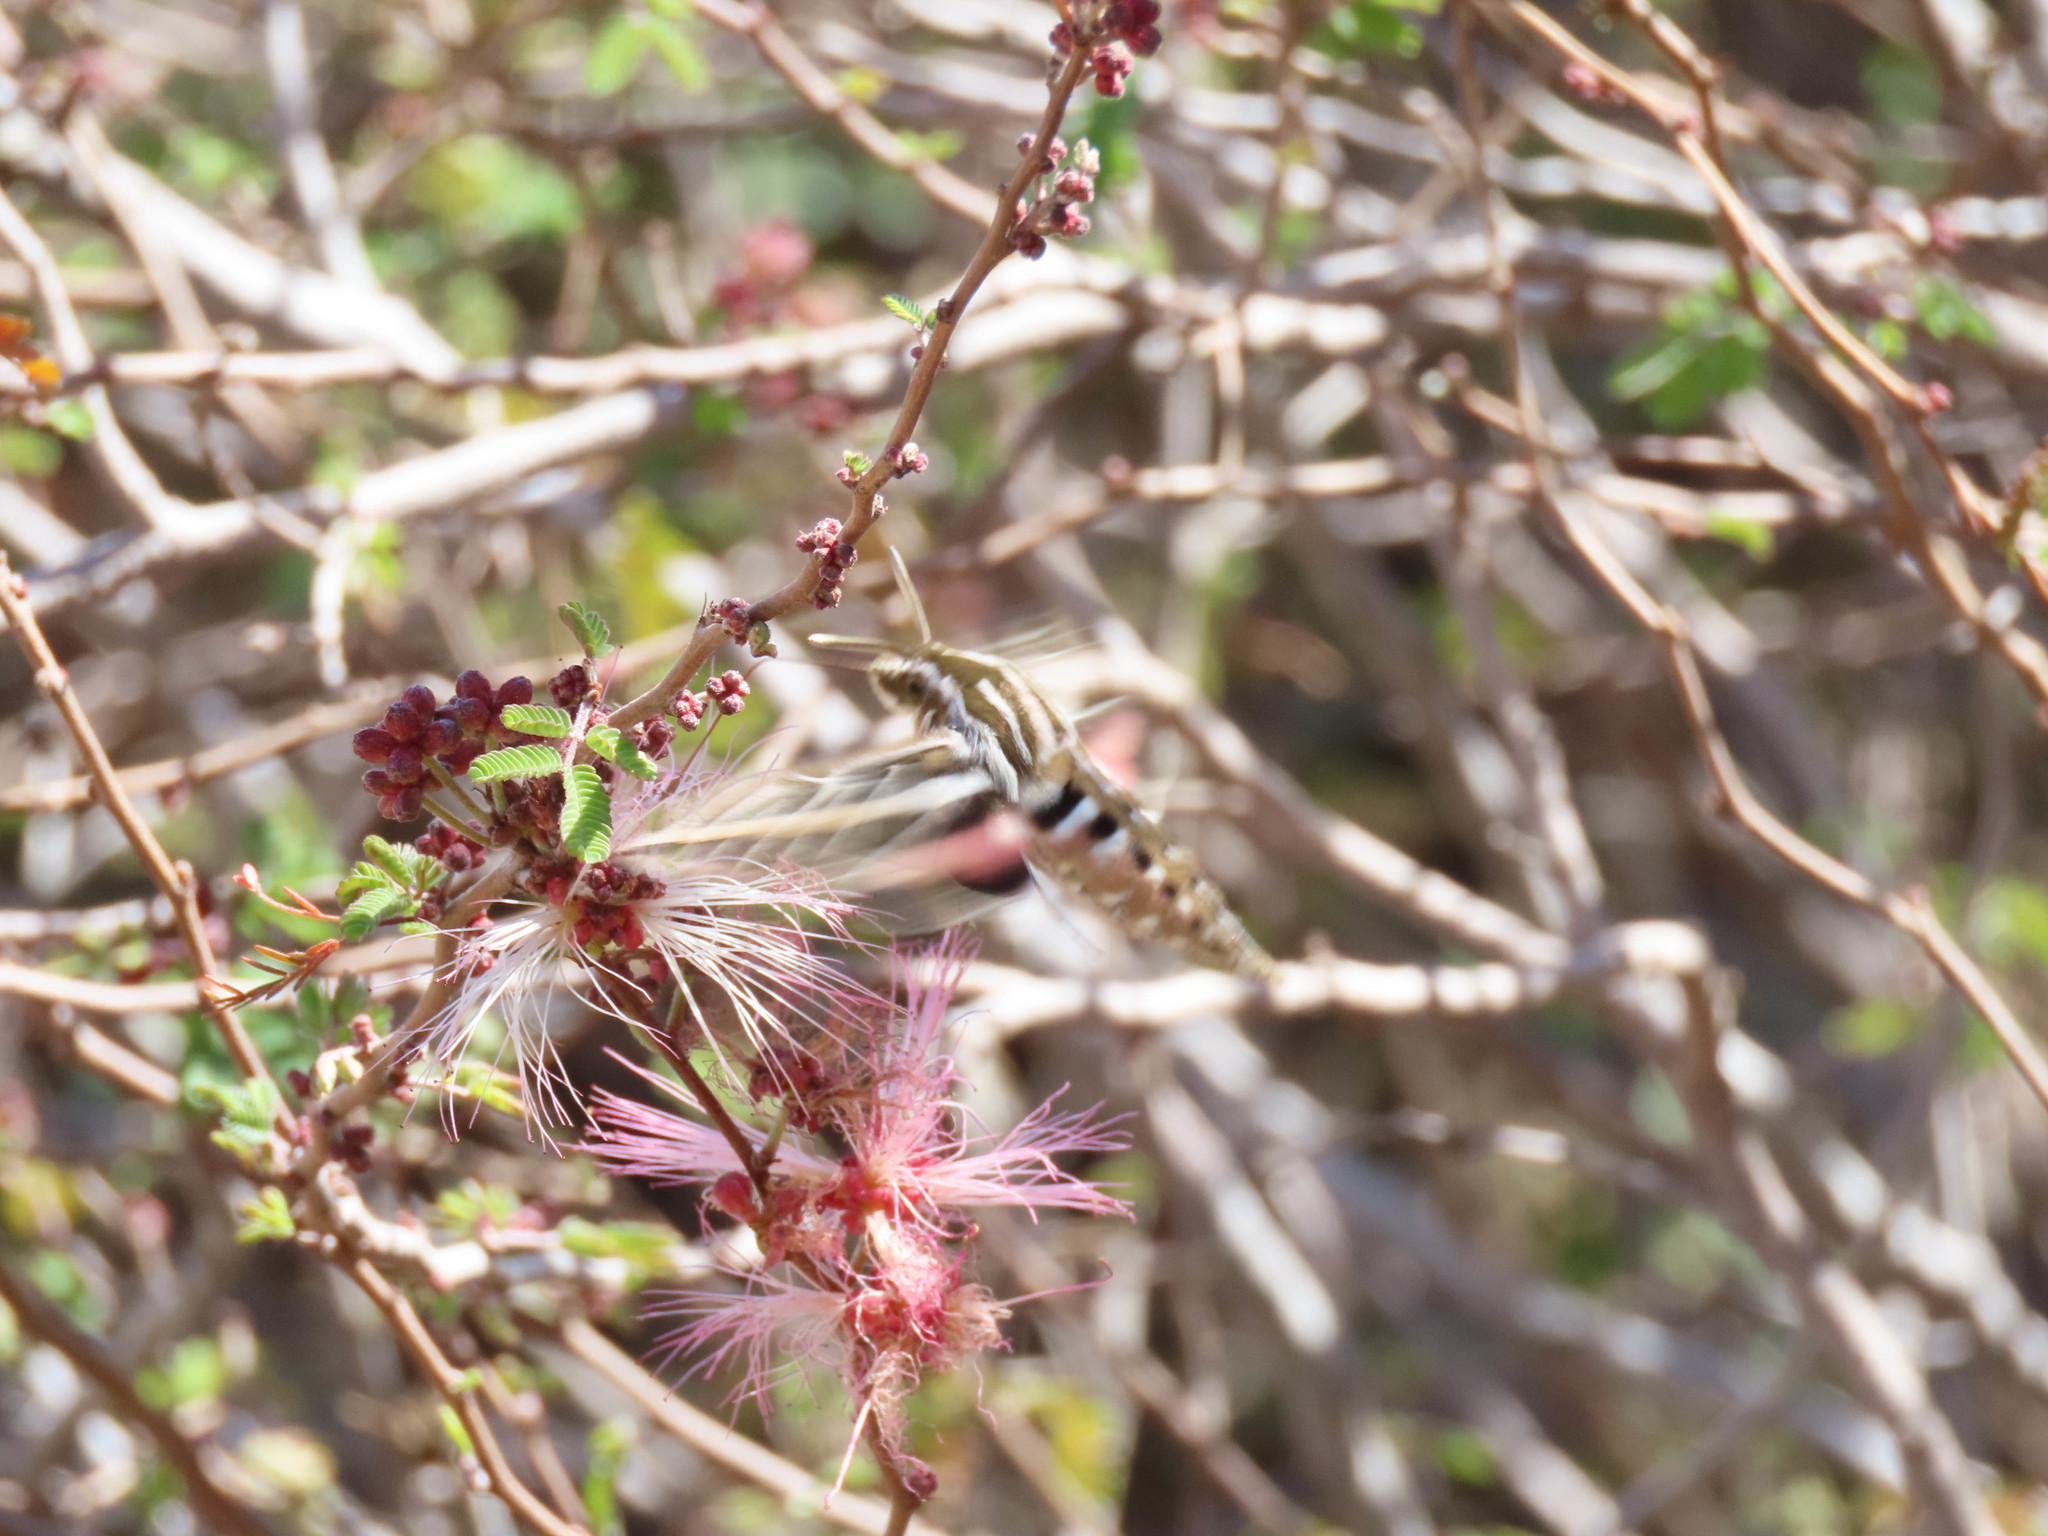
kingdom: Animalia
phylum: Arthropoda
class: Insecta
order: Lepidoptera
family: Sphingidae
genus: Hyles
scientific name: Hyles lineata
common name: White-lined sphinx
